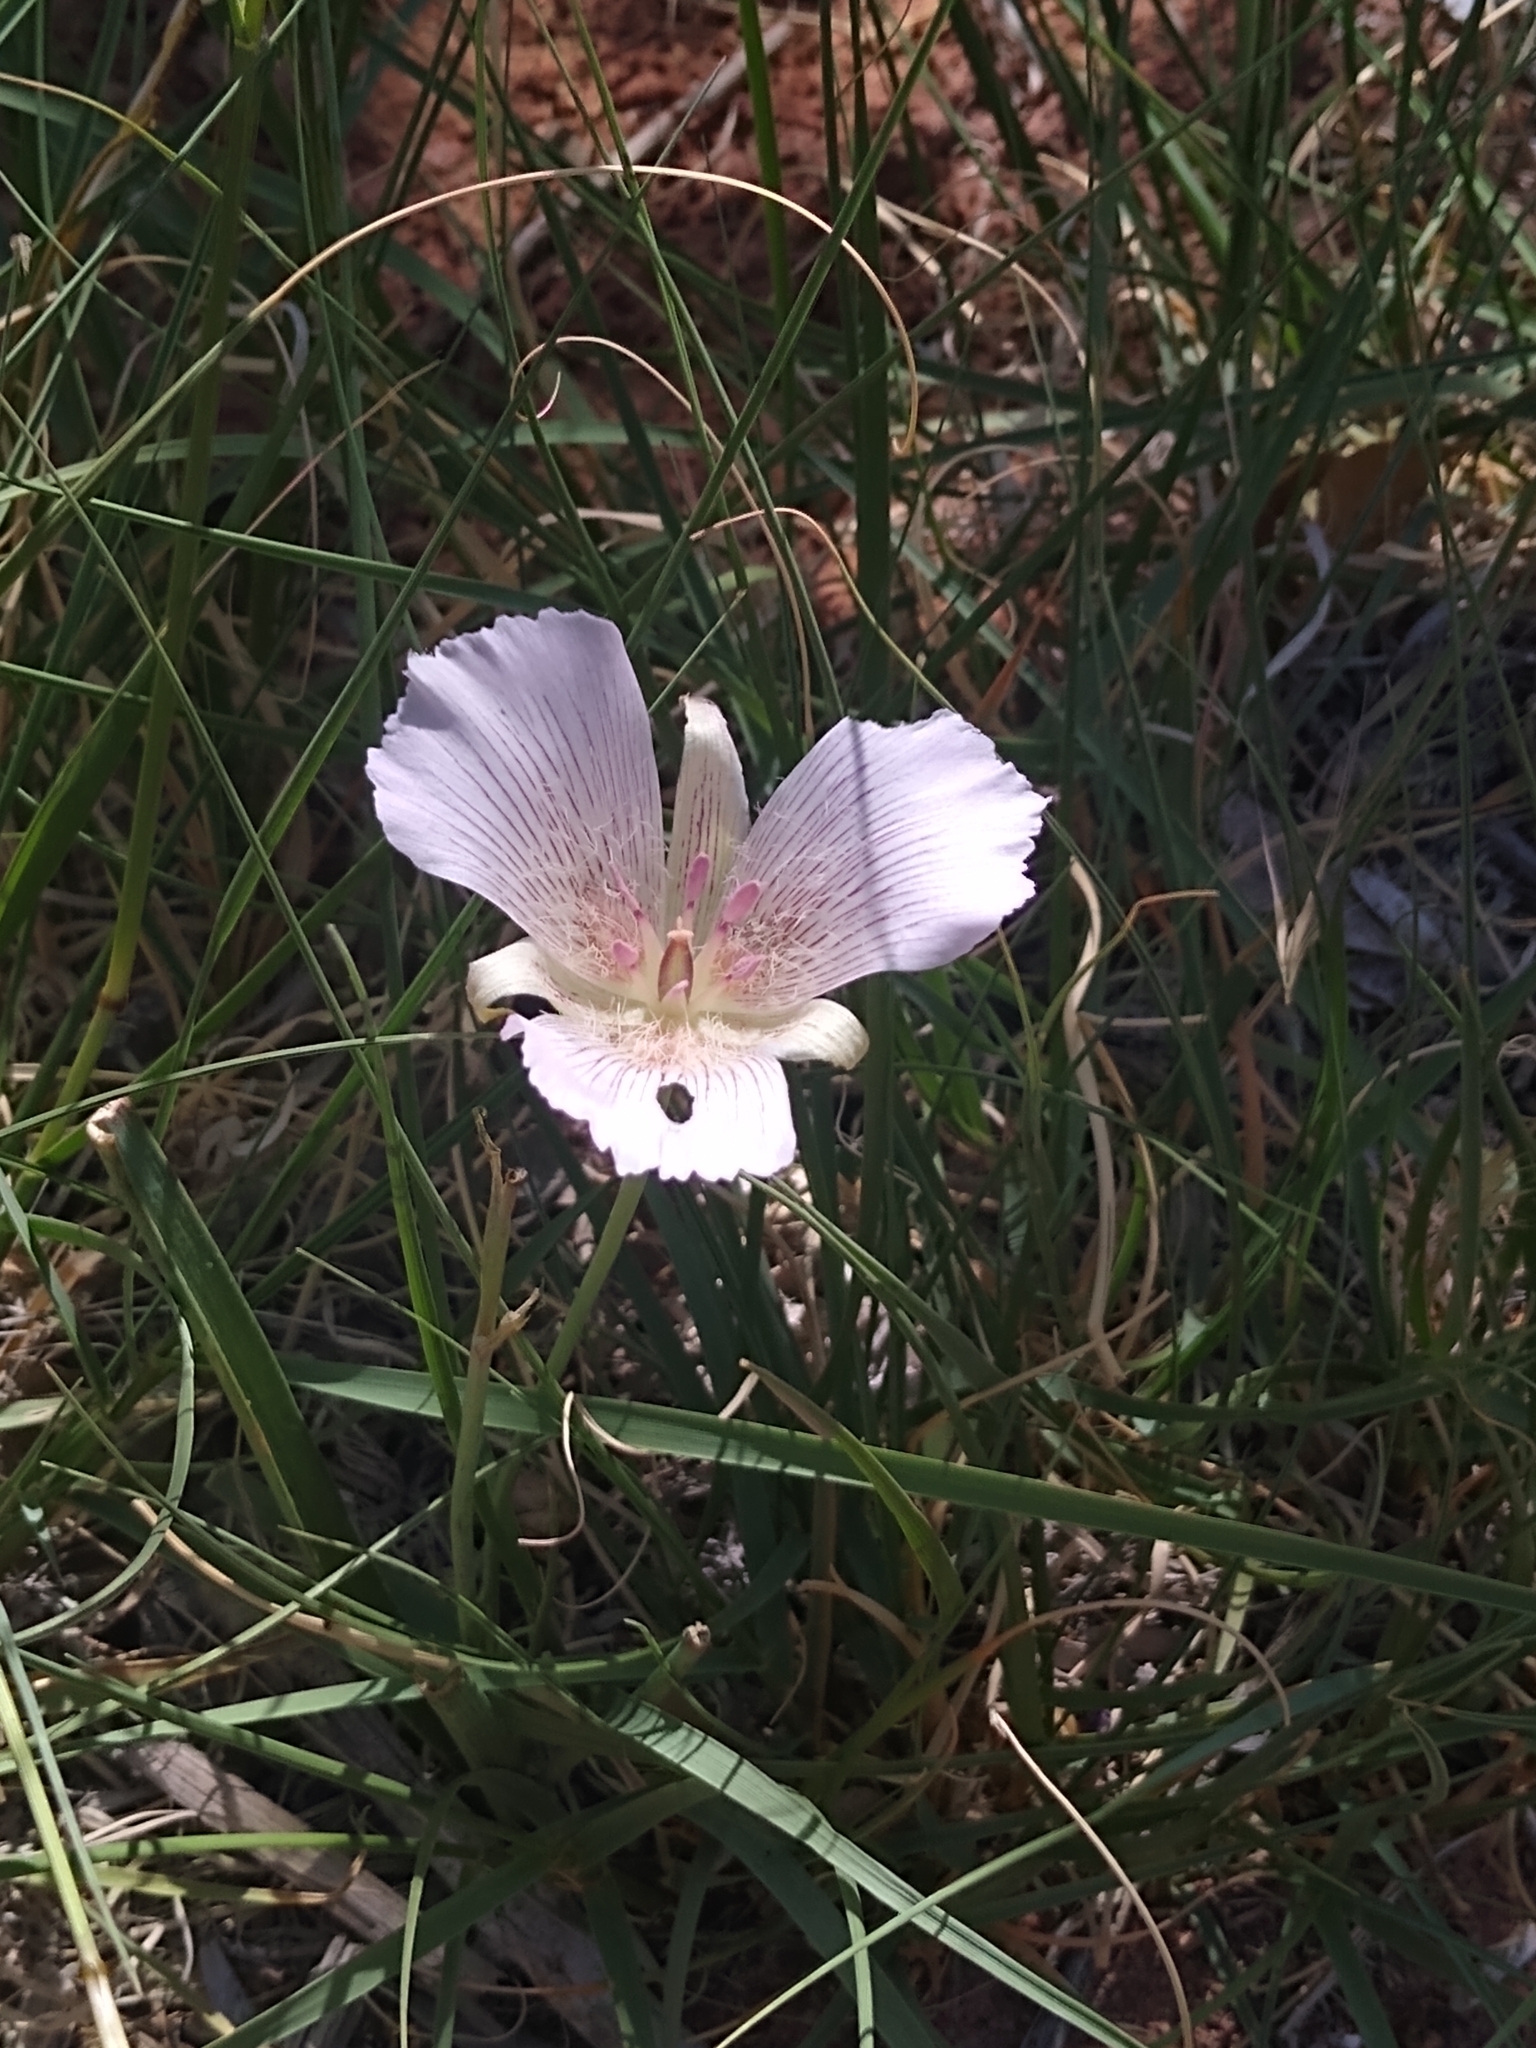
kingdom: Plantae
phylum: Tracheophyta
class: Liliopsida
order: Liliales
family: Liliaceae
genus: Calochortus
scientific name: Calochortus striatus
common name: Alkali mariposa-lily
